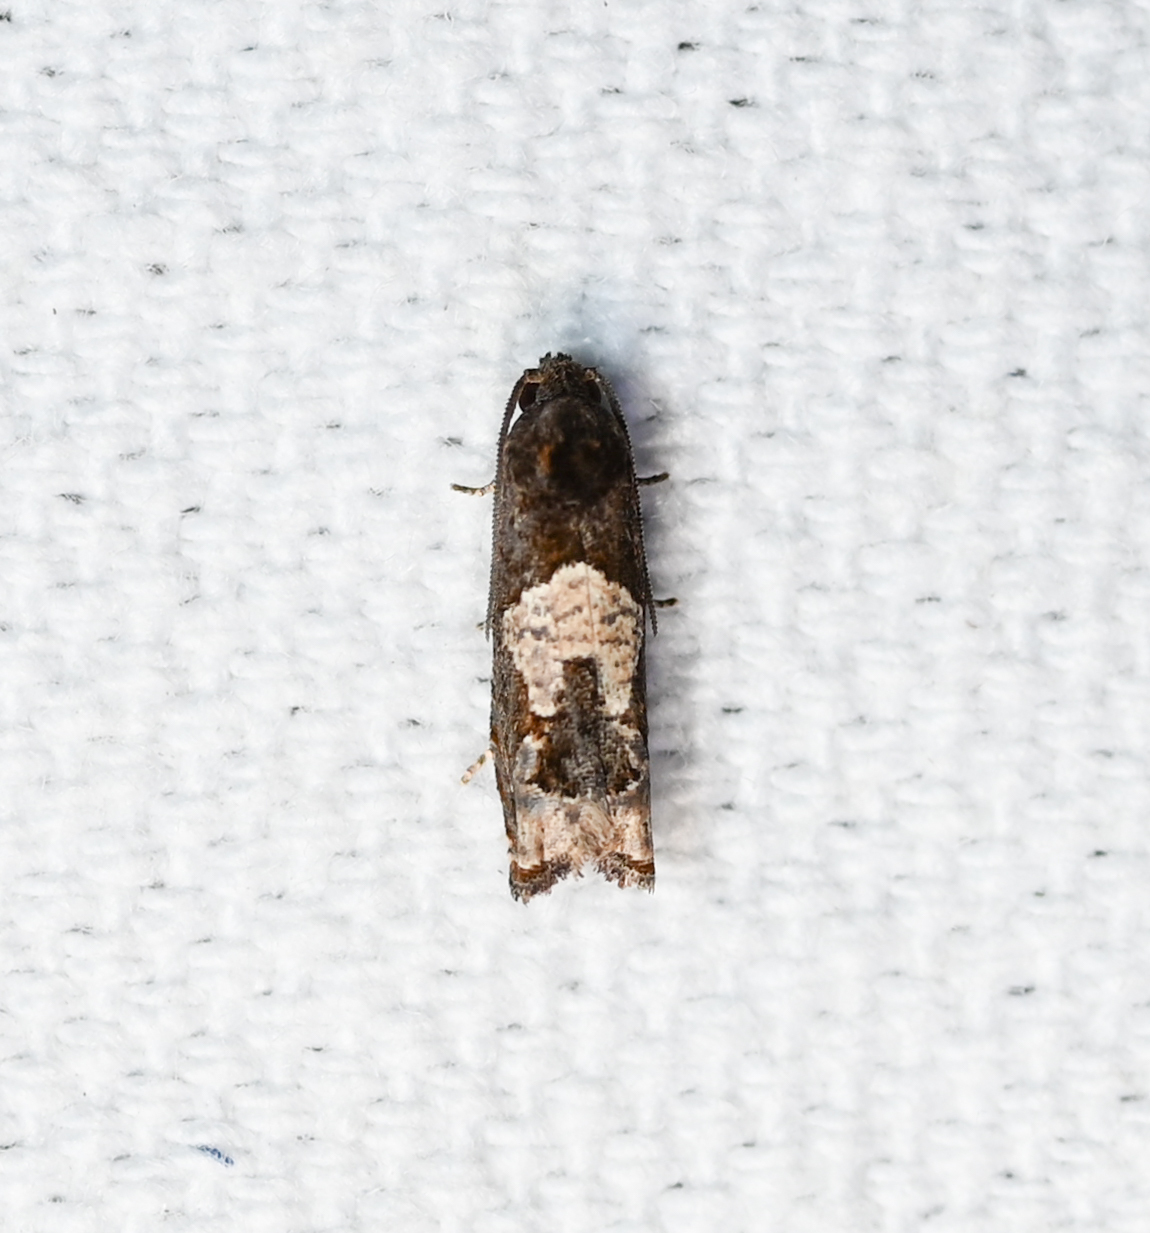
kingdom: Animalia
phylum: Arthropoda
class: Insecta
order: Lepidoptera
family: Tortricidae
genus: Epiblema
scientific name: Epiblema otiosana
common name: Bidens borer moth
